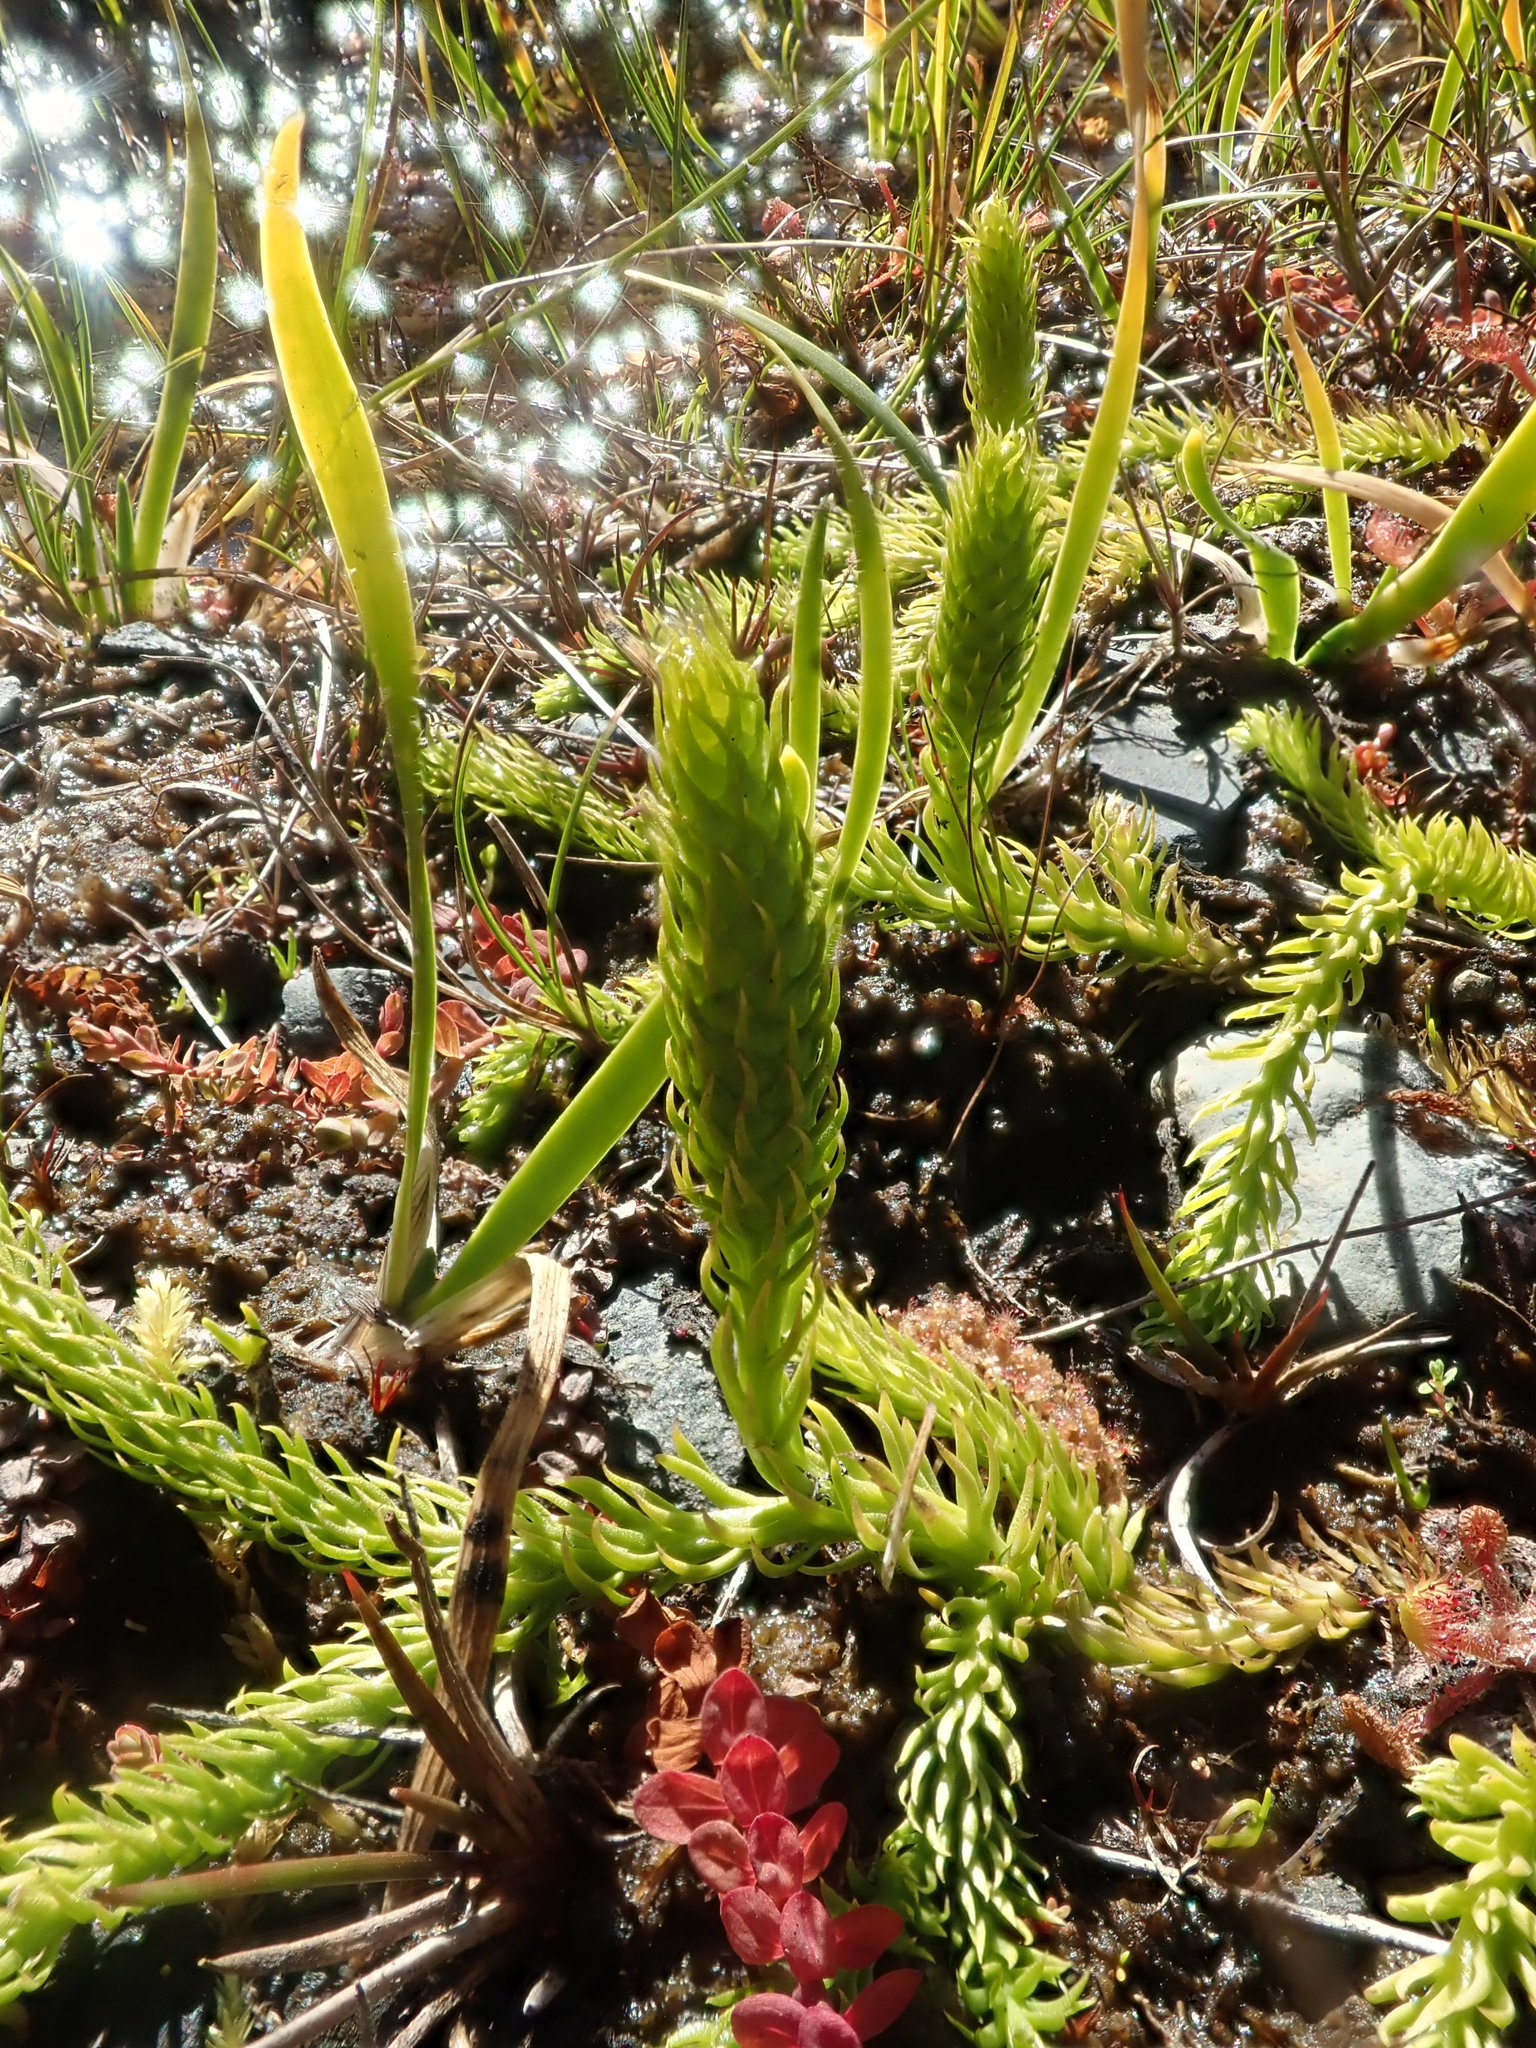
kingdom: Plantae
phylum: Tracheophyta
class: Lycopodiopsida
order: Lycopodiales
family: Lycopodiaceae
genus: Lycopodiella
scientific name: Lycopodiella inundata
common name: Marsh clubmoss
